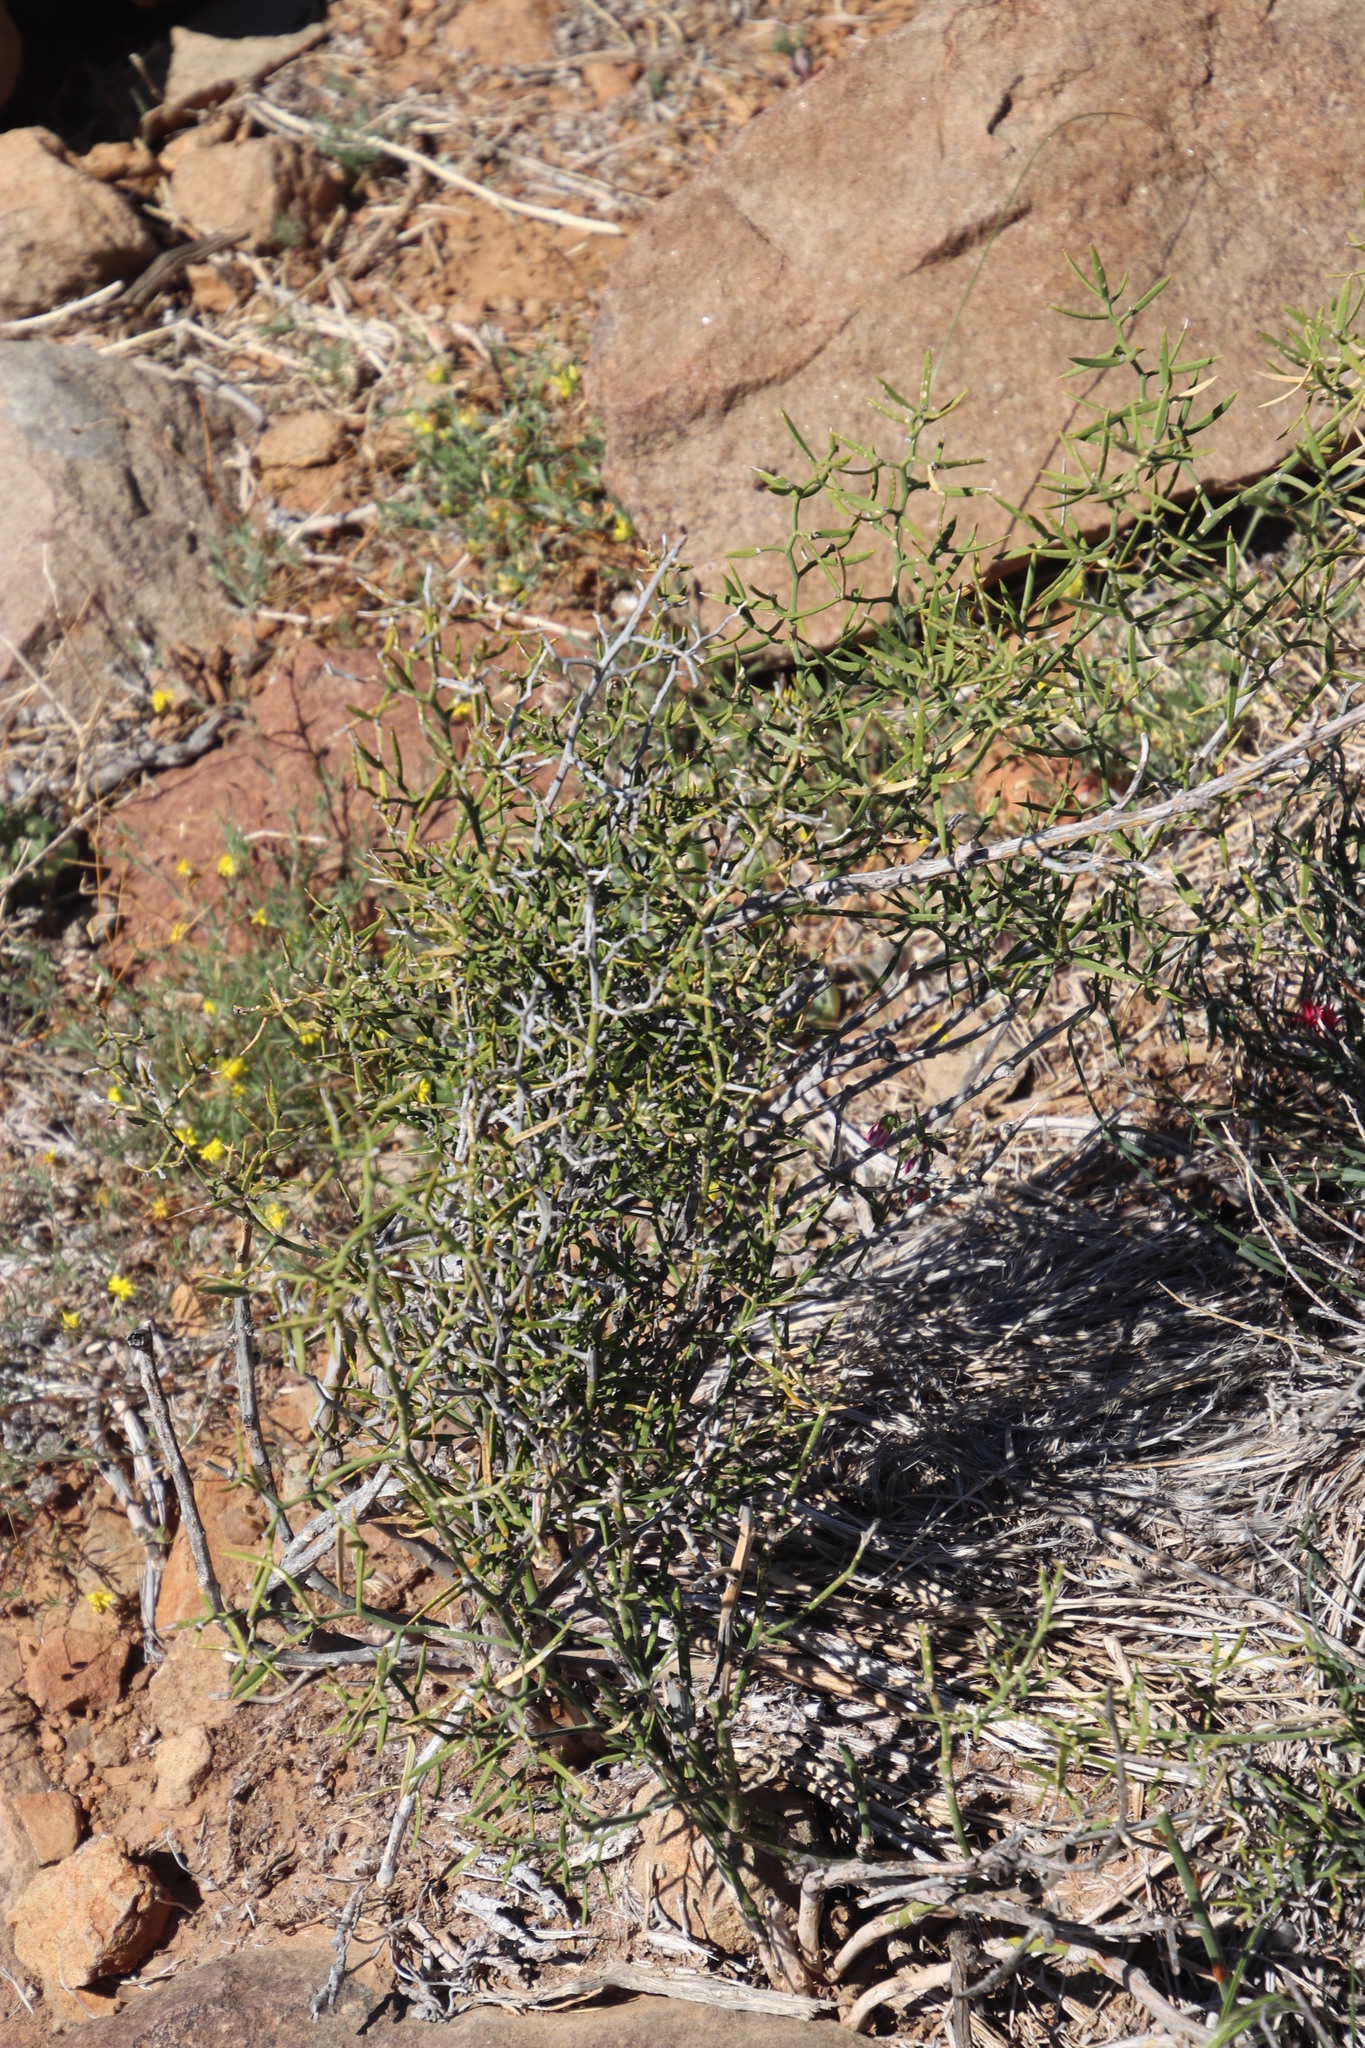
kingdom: Plantae
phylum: Tracheophyta
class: Liliopsida
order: Asparagales
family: Asparagaceae
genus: Asparagus
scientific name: Asparagus striatus
